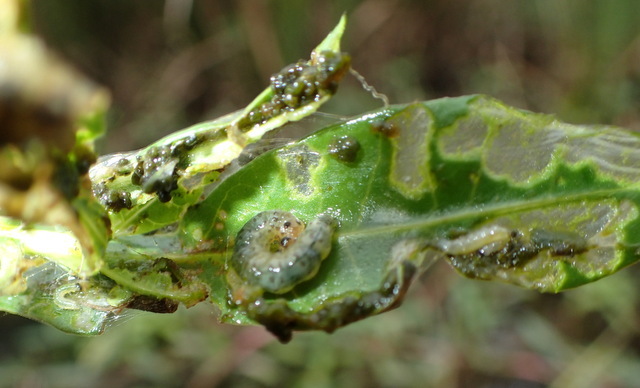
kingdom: Animalia
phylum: Arthropoda
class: Insecta
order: Lepidoptera
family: Crambidae
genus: Herpetogramma
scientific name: Herpetogramma bipunctalis
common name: Southern beet webworm
